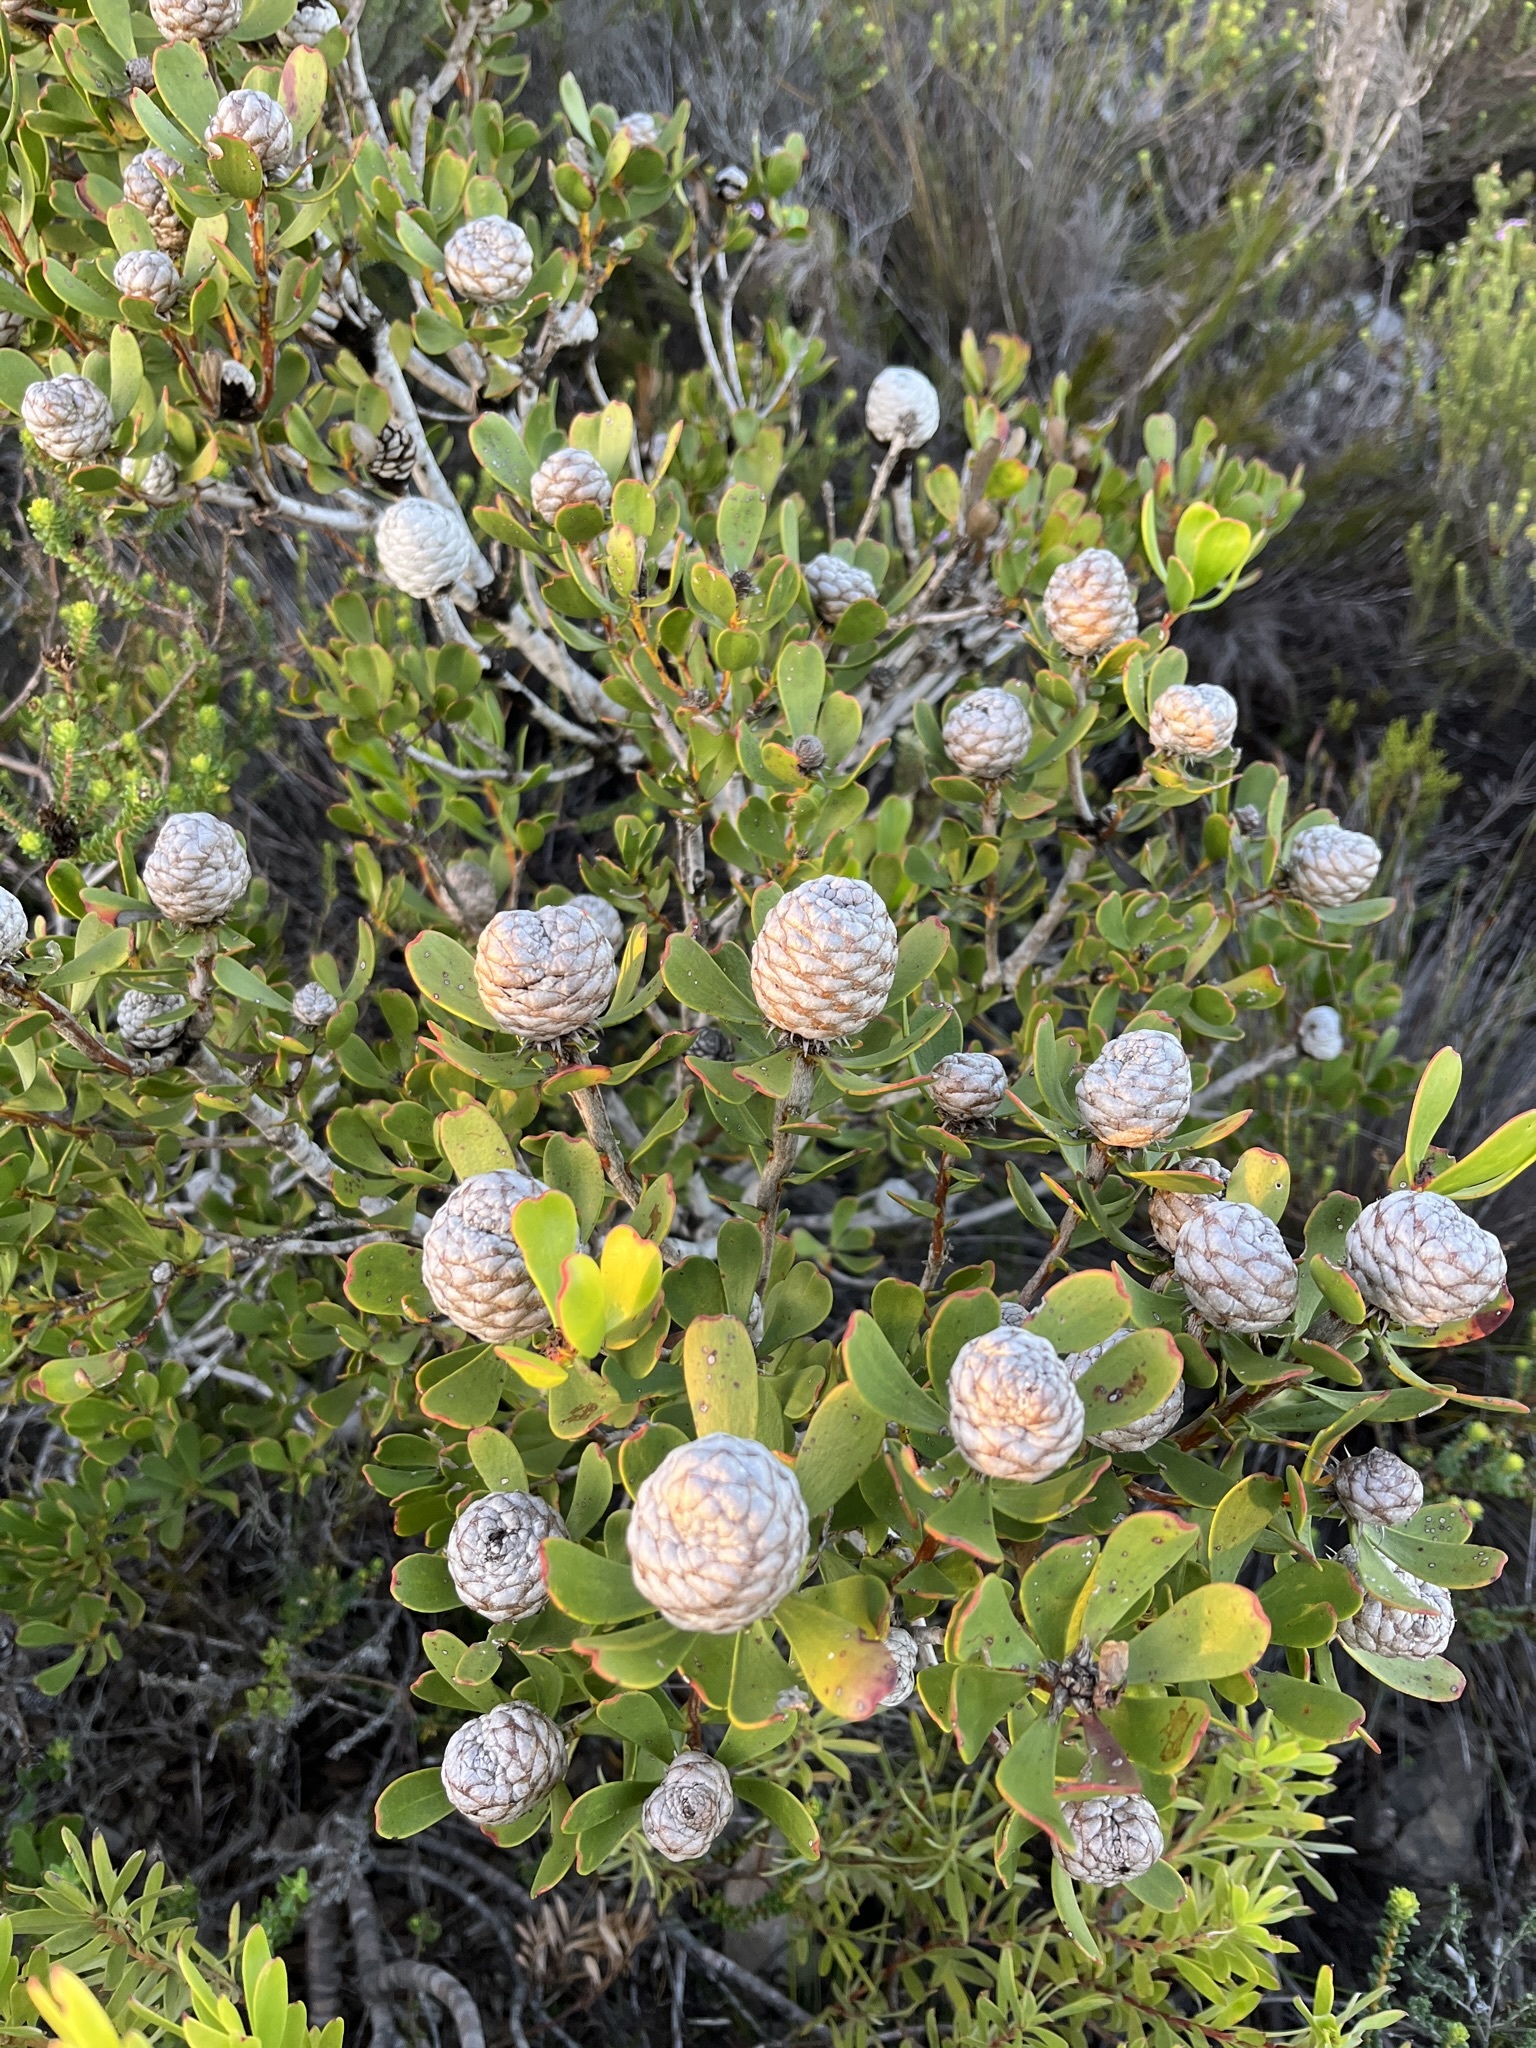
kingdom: Plantae
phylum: Tracheophyta
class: Magnoliopsida
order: Proteales
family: Proteaceae
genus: Leucadendron
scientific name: Leucadendron muirii
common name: Silver-ball conebush
